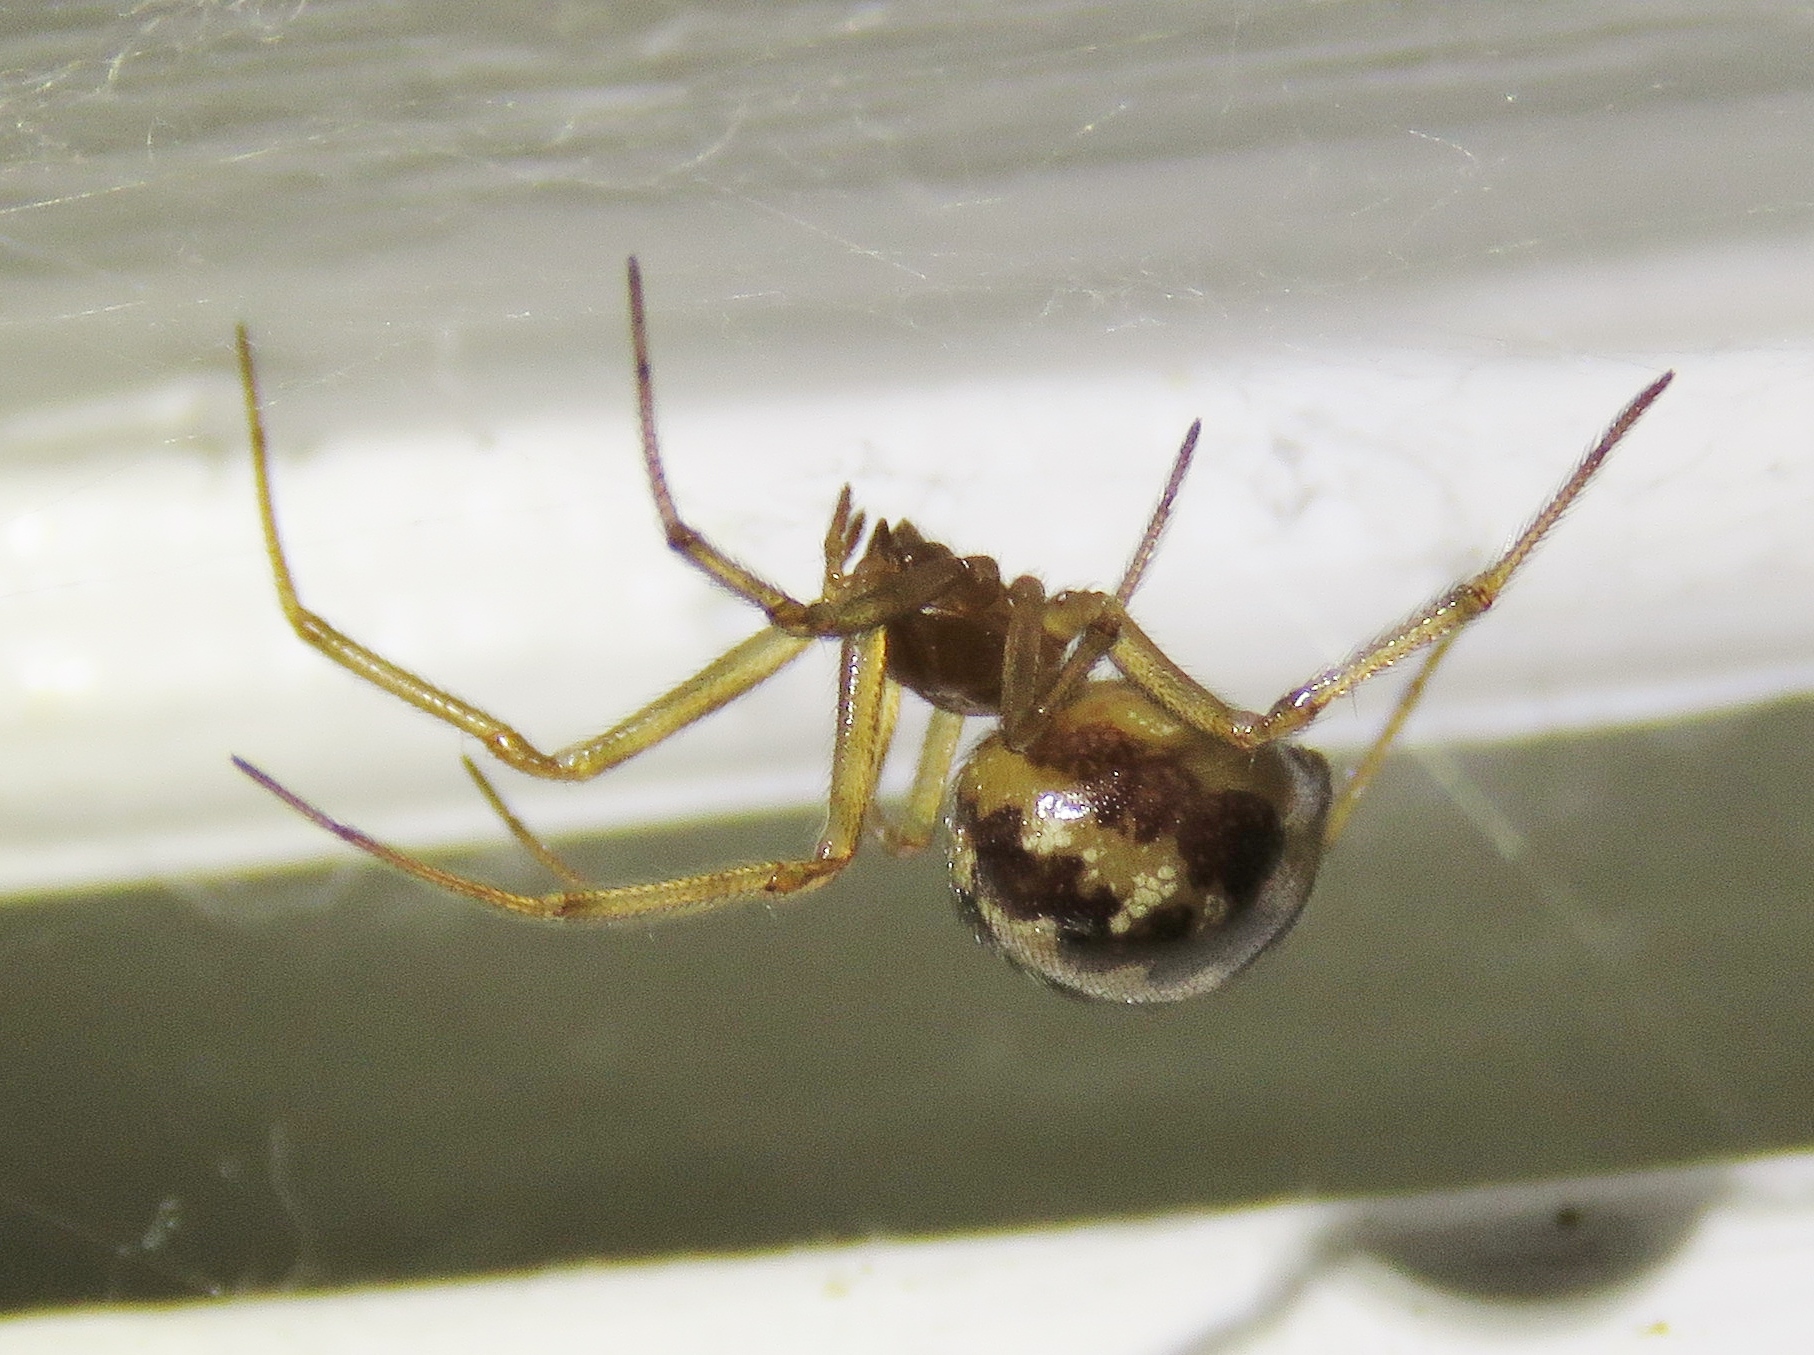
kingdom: Animalia
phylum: Arthropoda
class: Arachnida
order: Araneae
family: Theridiidae
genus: Steatoda
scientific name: Steatoda triangulosa
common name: Triangulate bud spider
